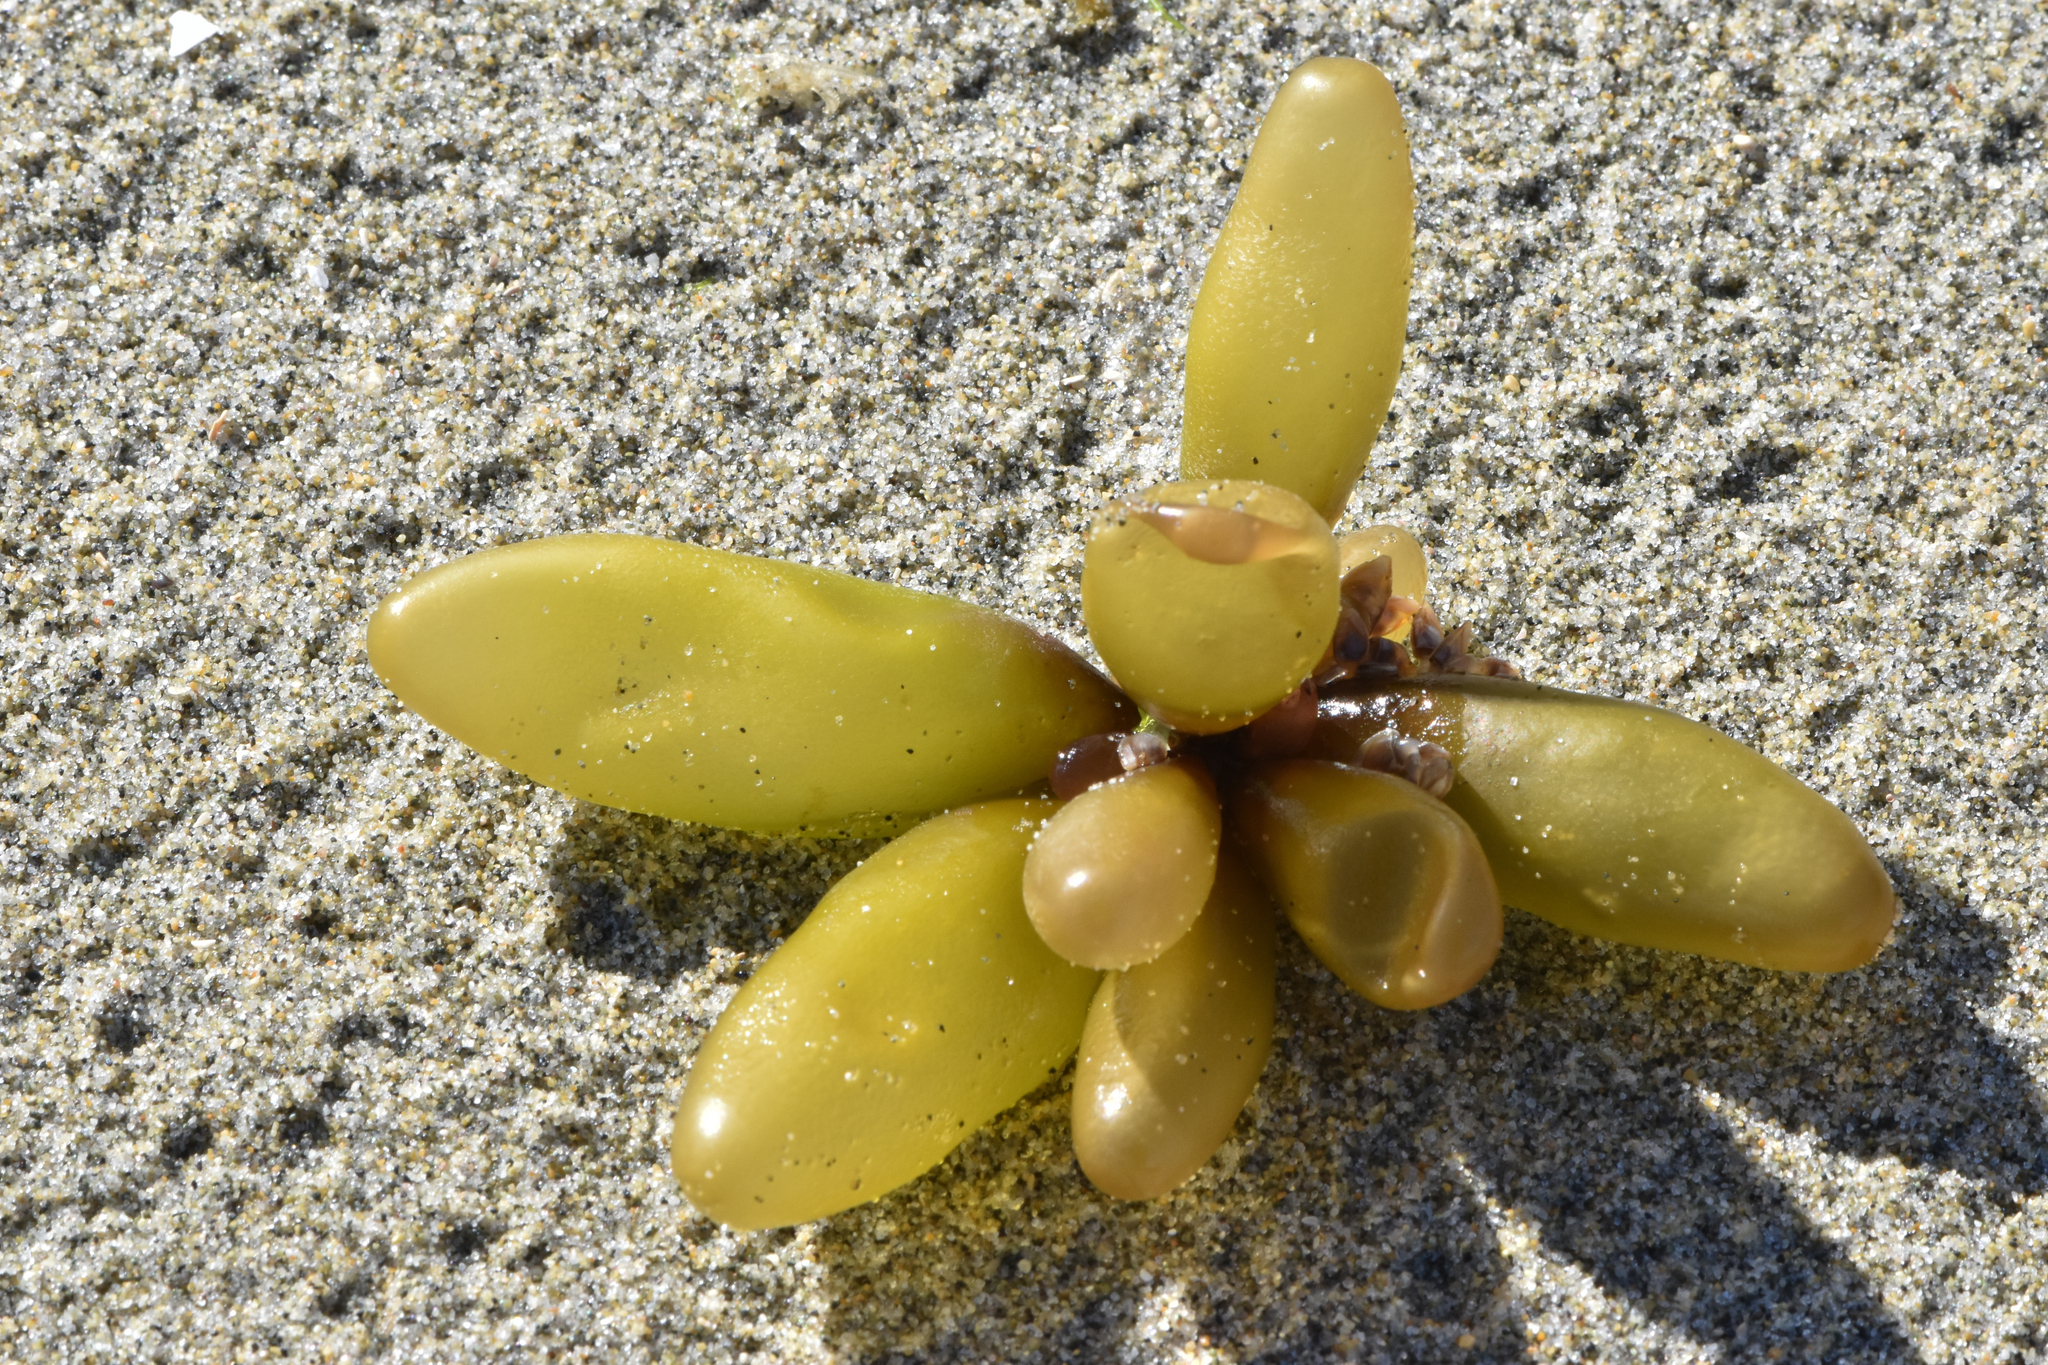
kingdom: Plantae
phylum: Rhodophyta
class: Florideophyceae
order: Palmariales
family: Palmariaceae
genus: Halosaccion
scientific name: Halosaccion glandiforme
